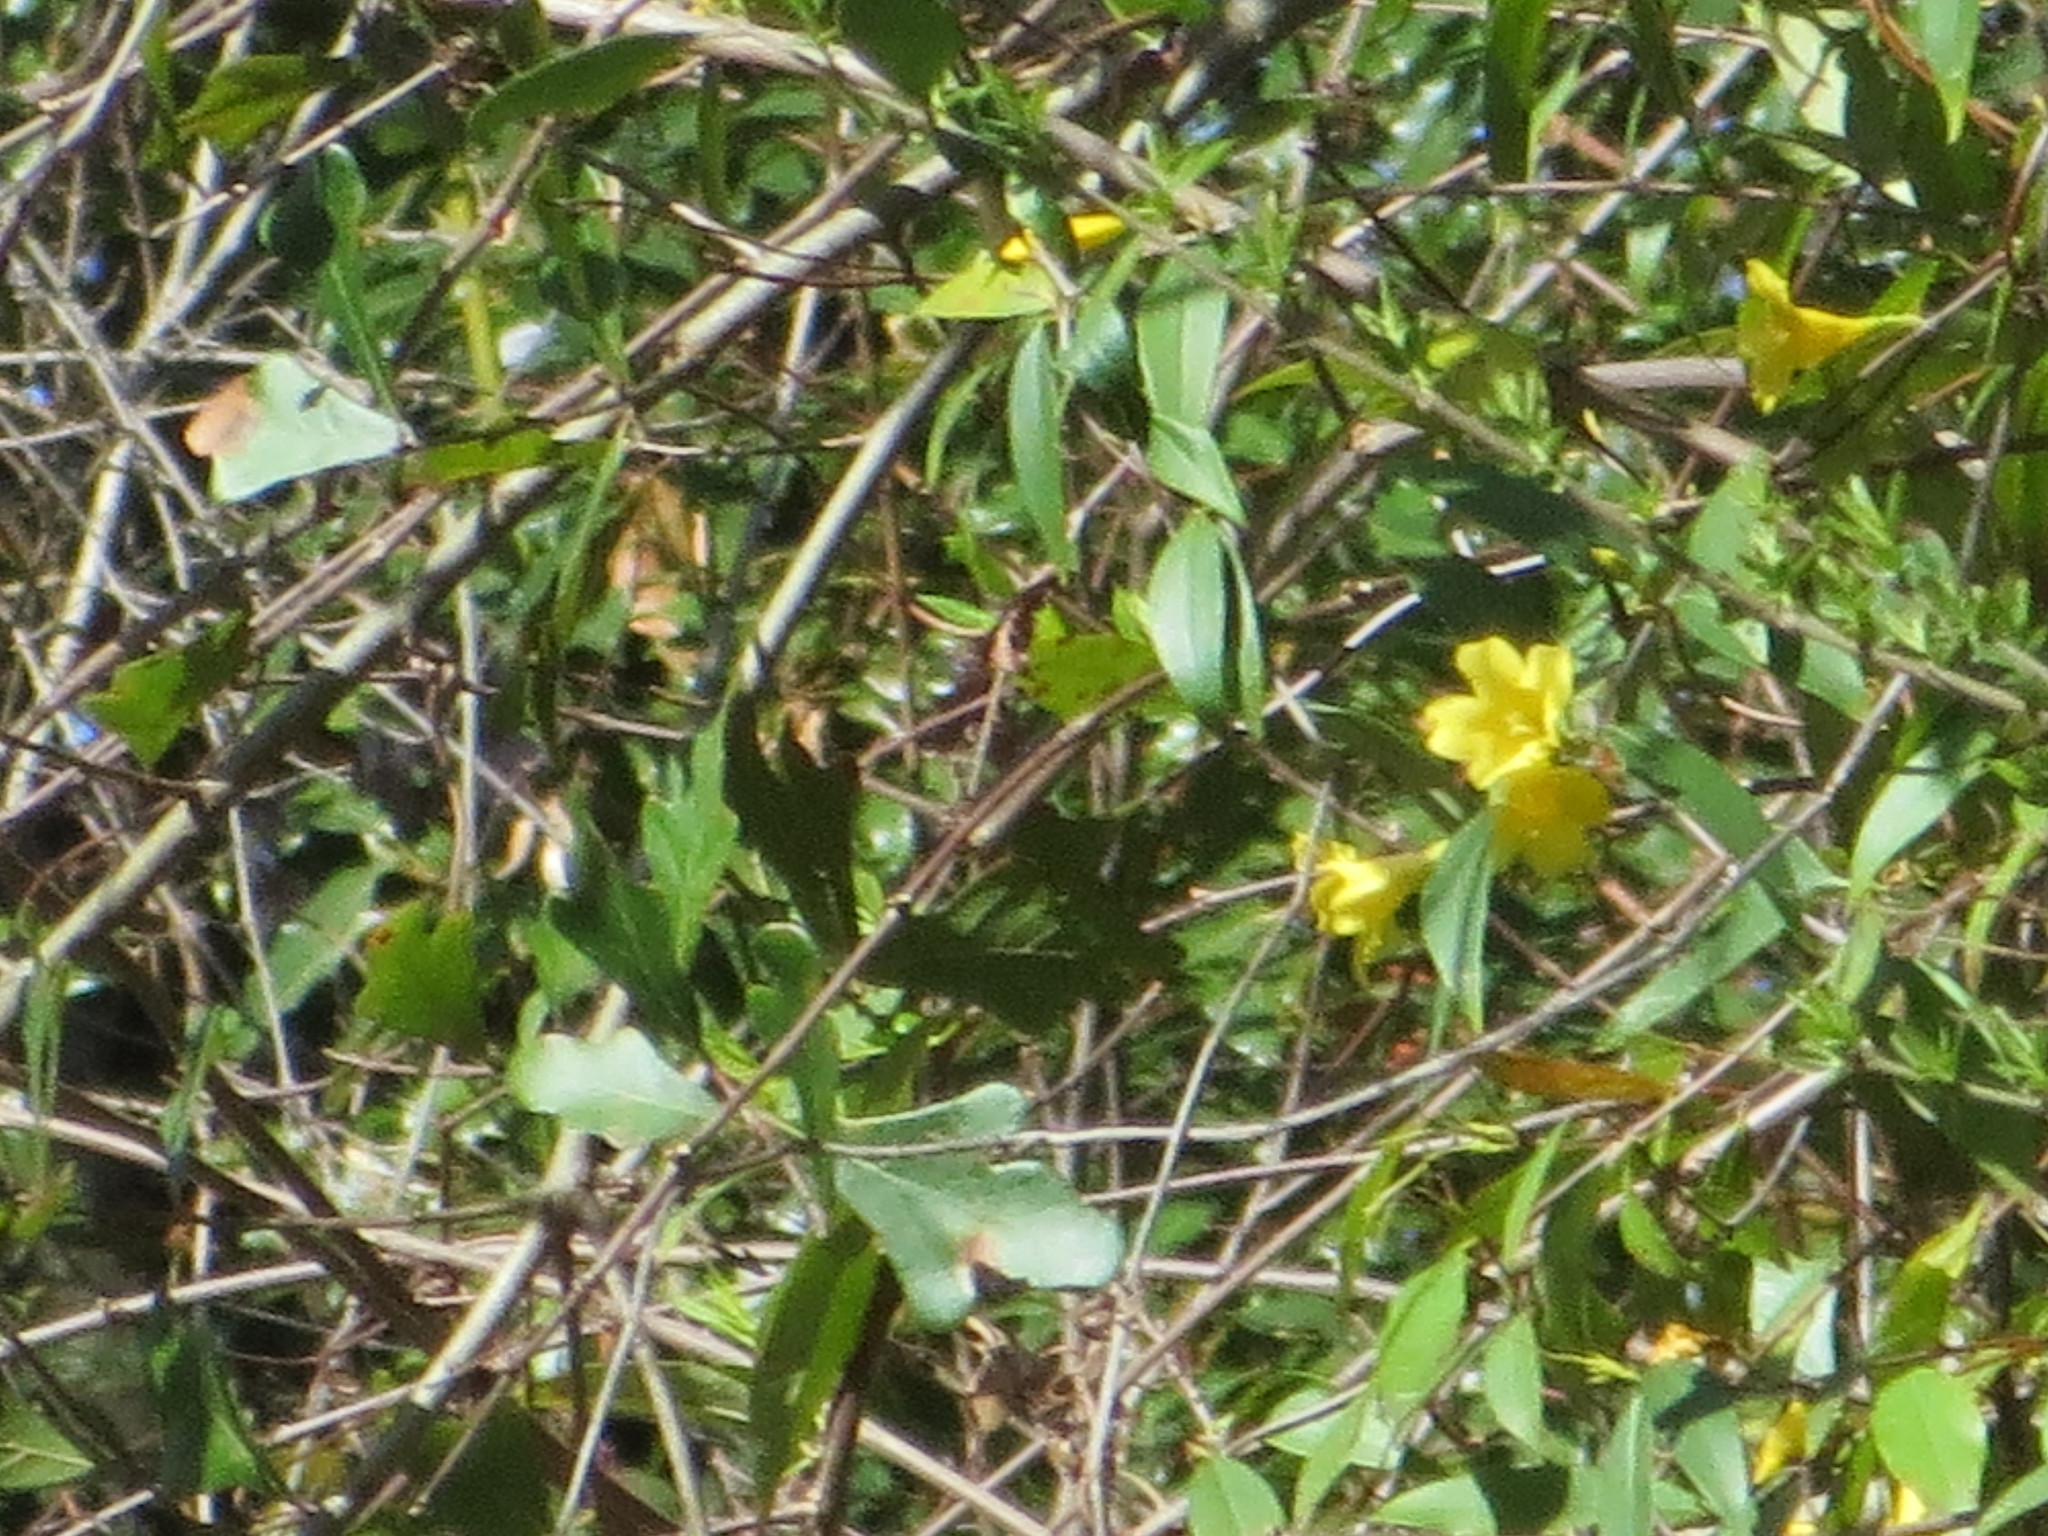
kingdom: Plantae
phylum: Tracheophyta
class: Magnoliopsida
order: Gentianales
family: Gelsemiaceae
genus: Gelsemium
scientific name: Gelsemium sempervirens
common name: Carolina-jasmine
